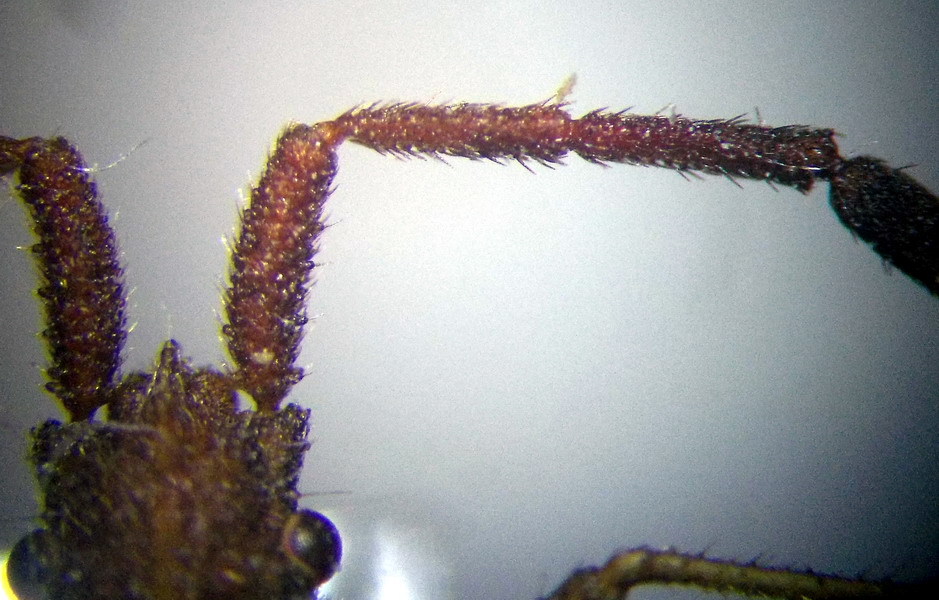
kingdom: Animalia
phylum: Arthropoda
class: Insecta
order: Hemiptera
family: Coreidae
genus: Coriomeris
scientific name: Coriomeris denticulatus
